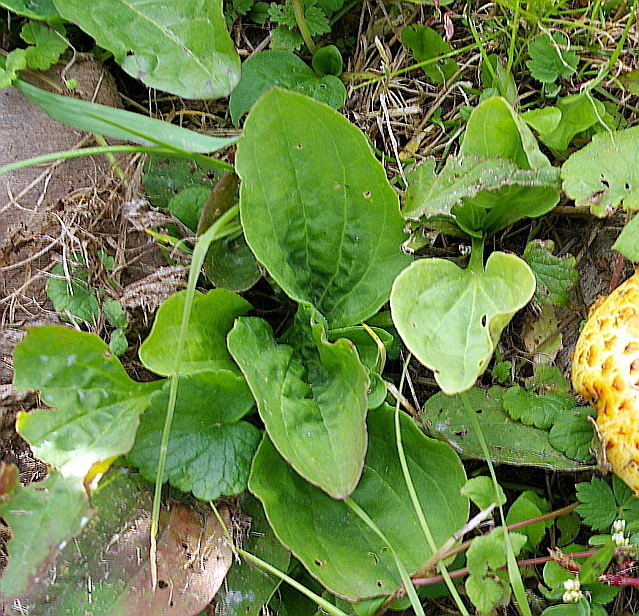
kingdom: Plantae
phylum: Tracheophyta
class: Magnoliopsida
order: Lamiales
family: Plantaginaceae
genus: Plantago
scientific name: Plantago major
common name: Common plantain
